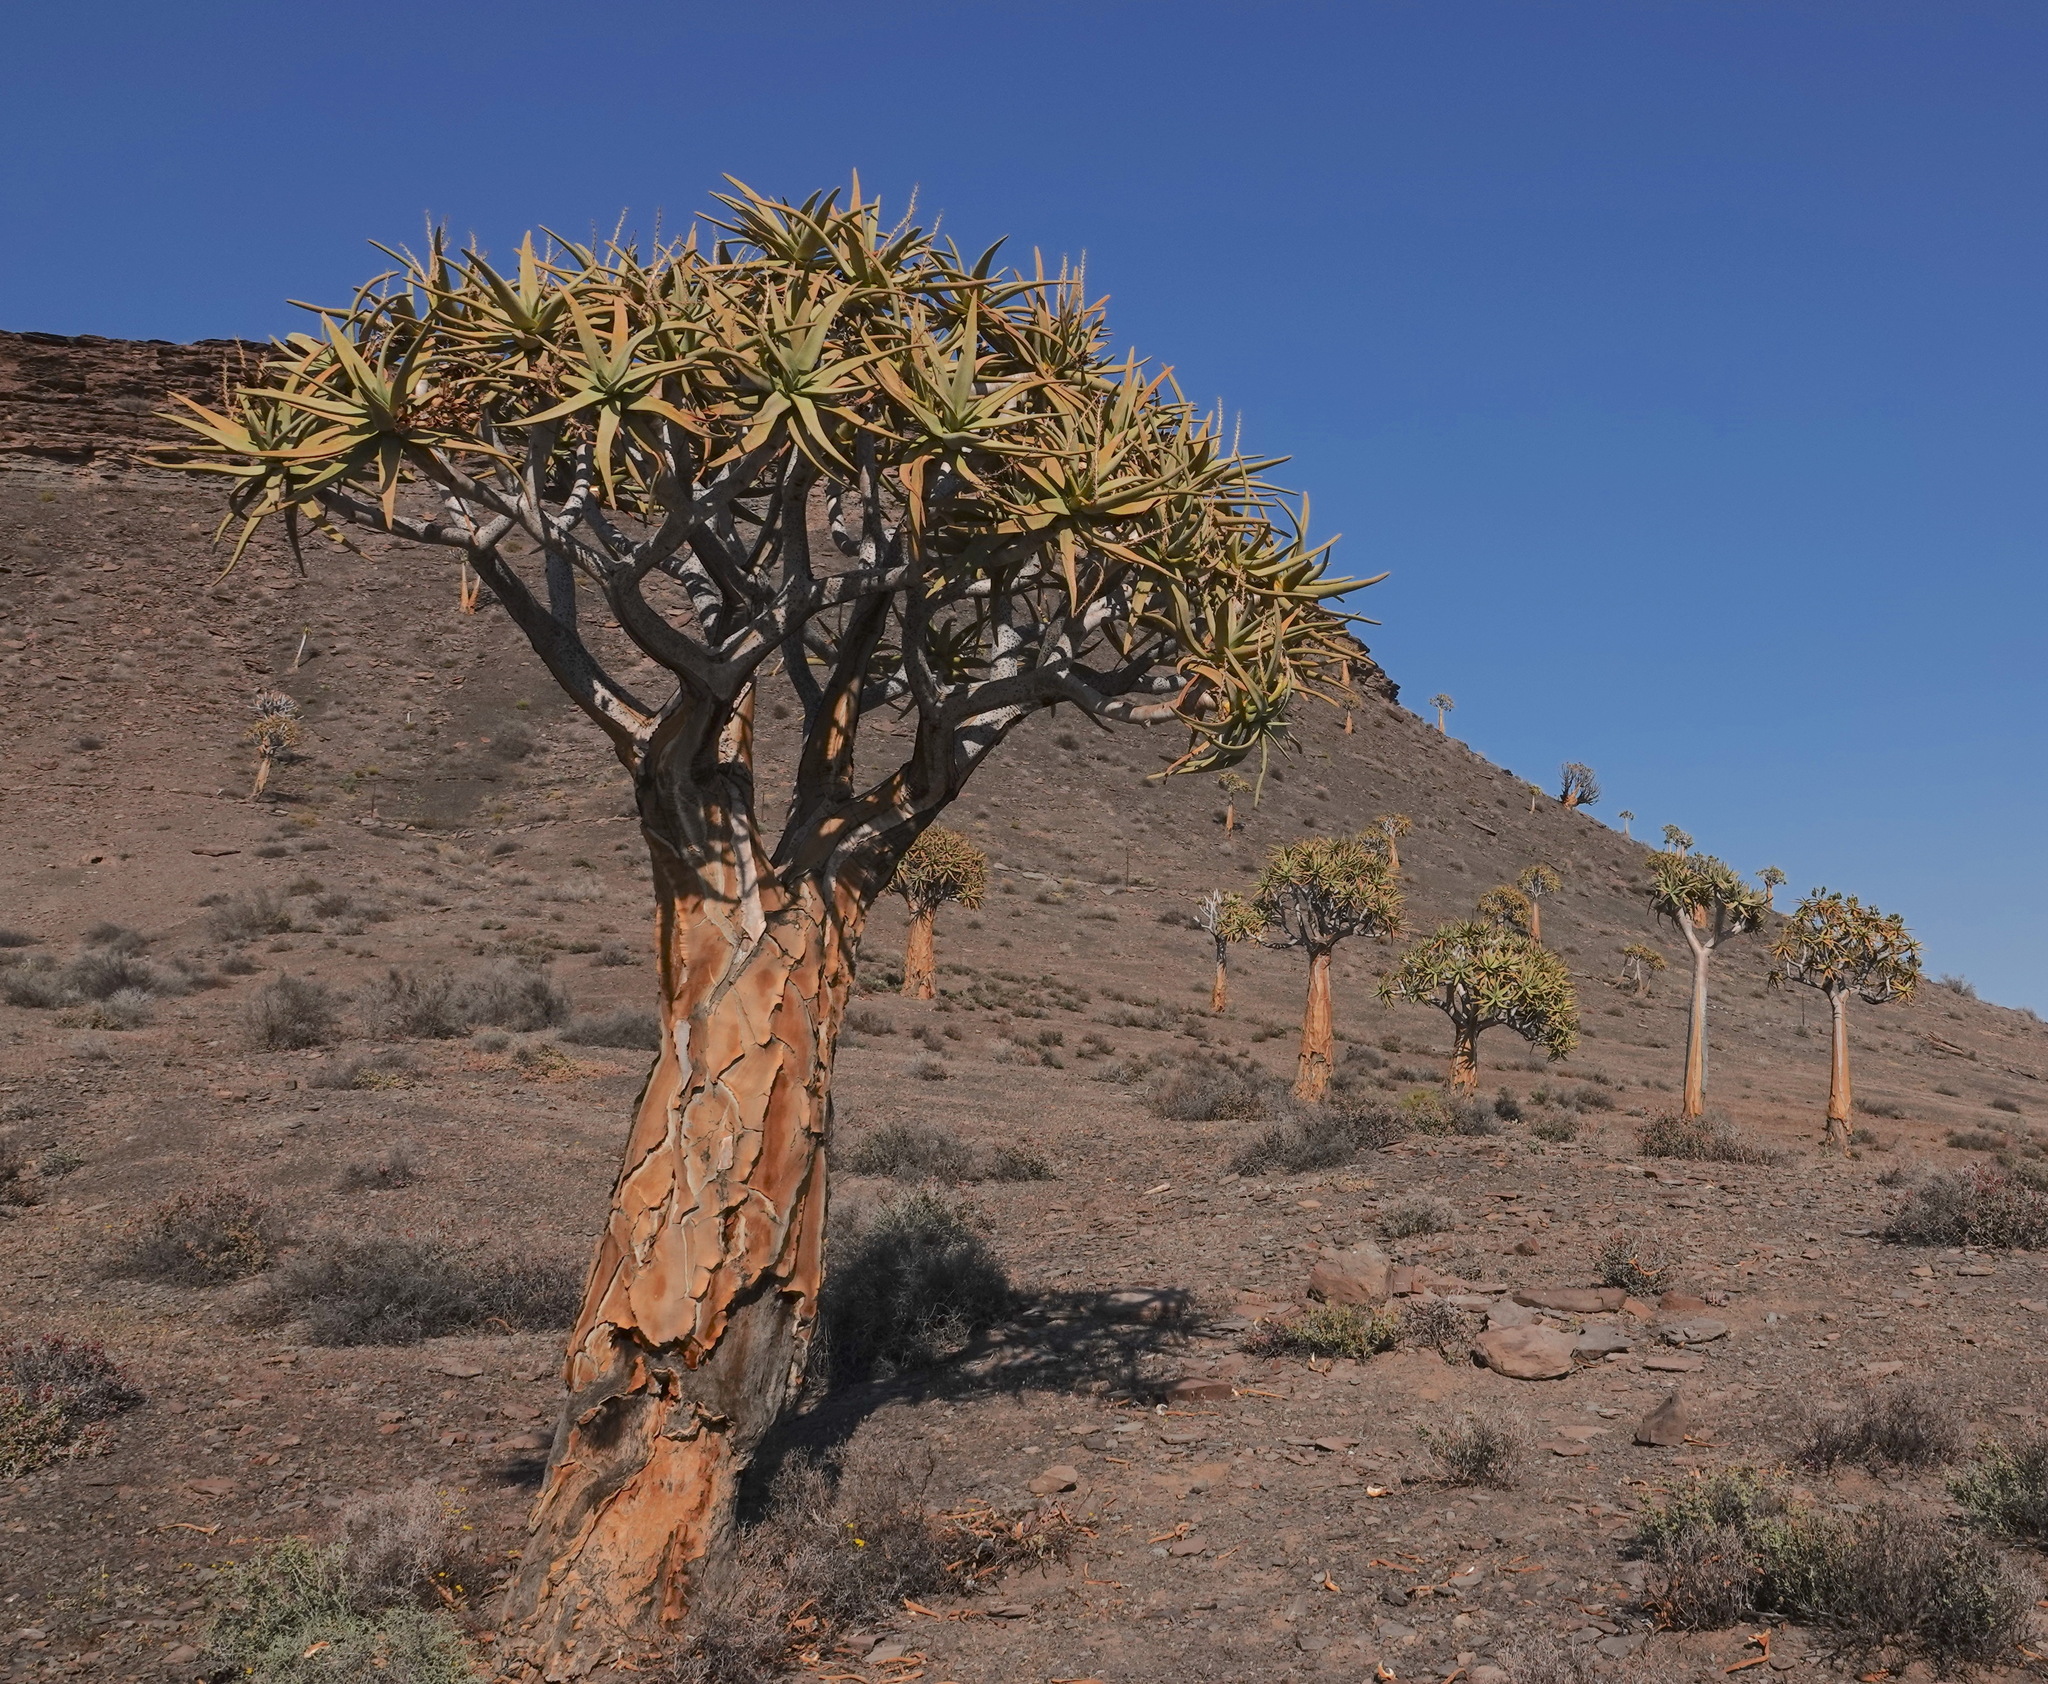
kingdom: Plantae
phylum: Tracheophyta
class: Liliopsida
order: Asparagales
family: Asphodelaceae
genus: Aloidendron
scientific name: Aloidendron dichotomum
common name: Quiver tree
